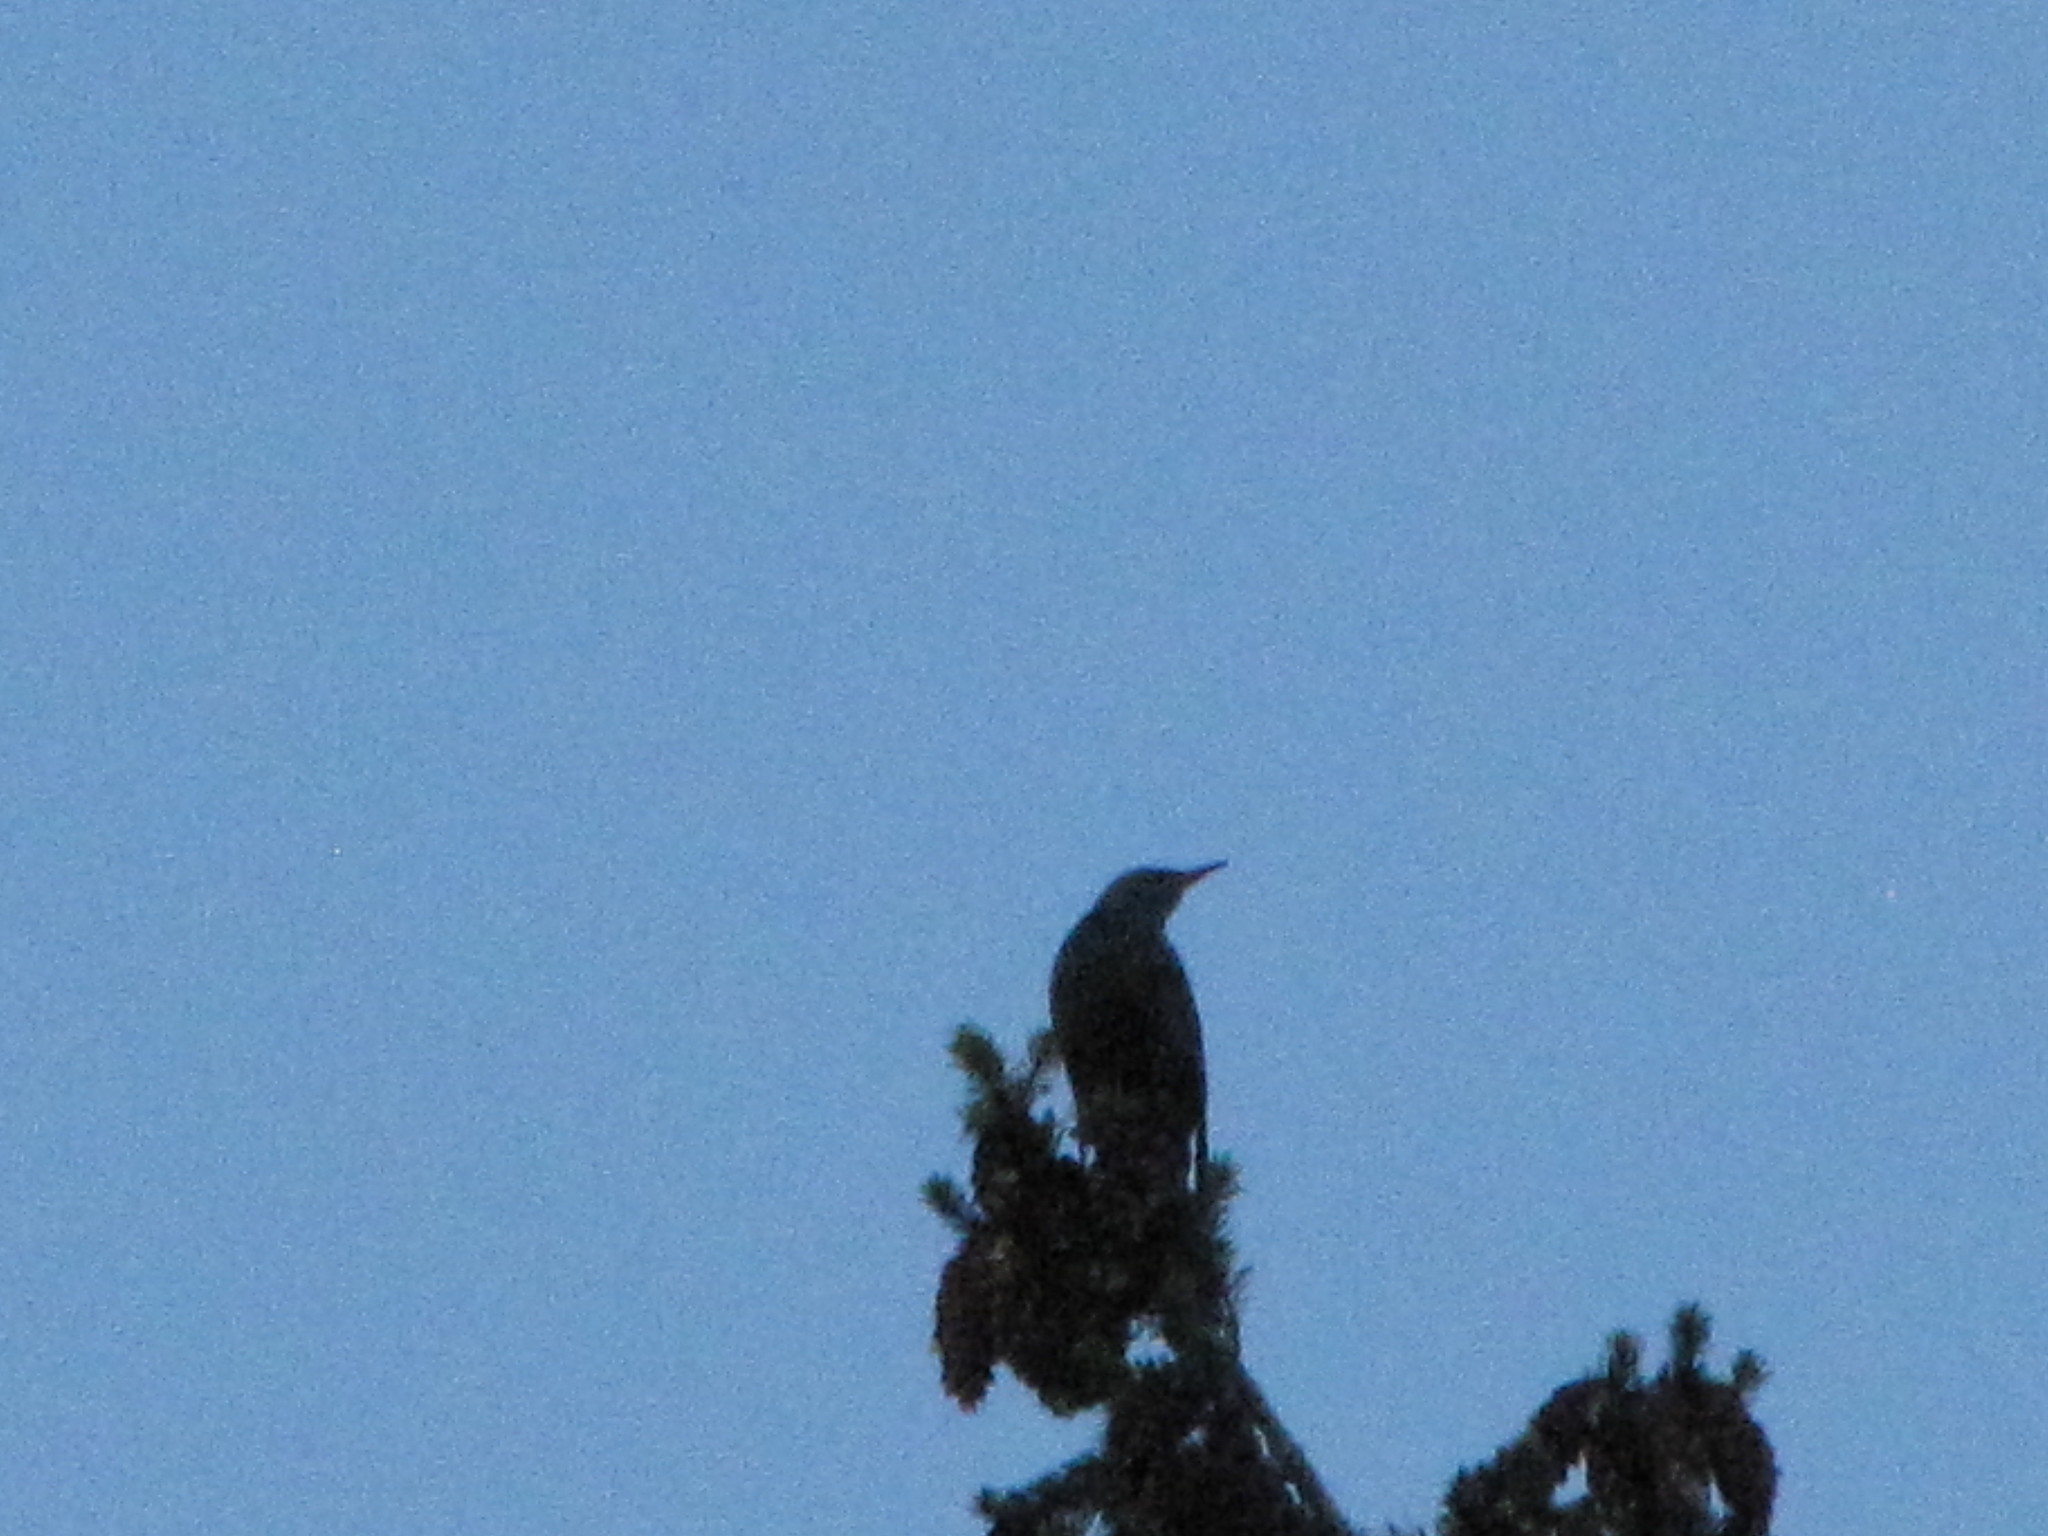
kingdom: Animalia
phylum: Chordata
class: Aves
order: Passeriformes
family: Sturnidae
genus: Sturnus
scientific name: Sturnus vulgaris
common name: Common starling
